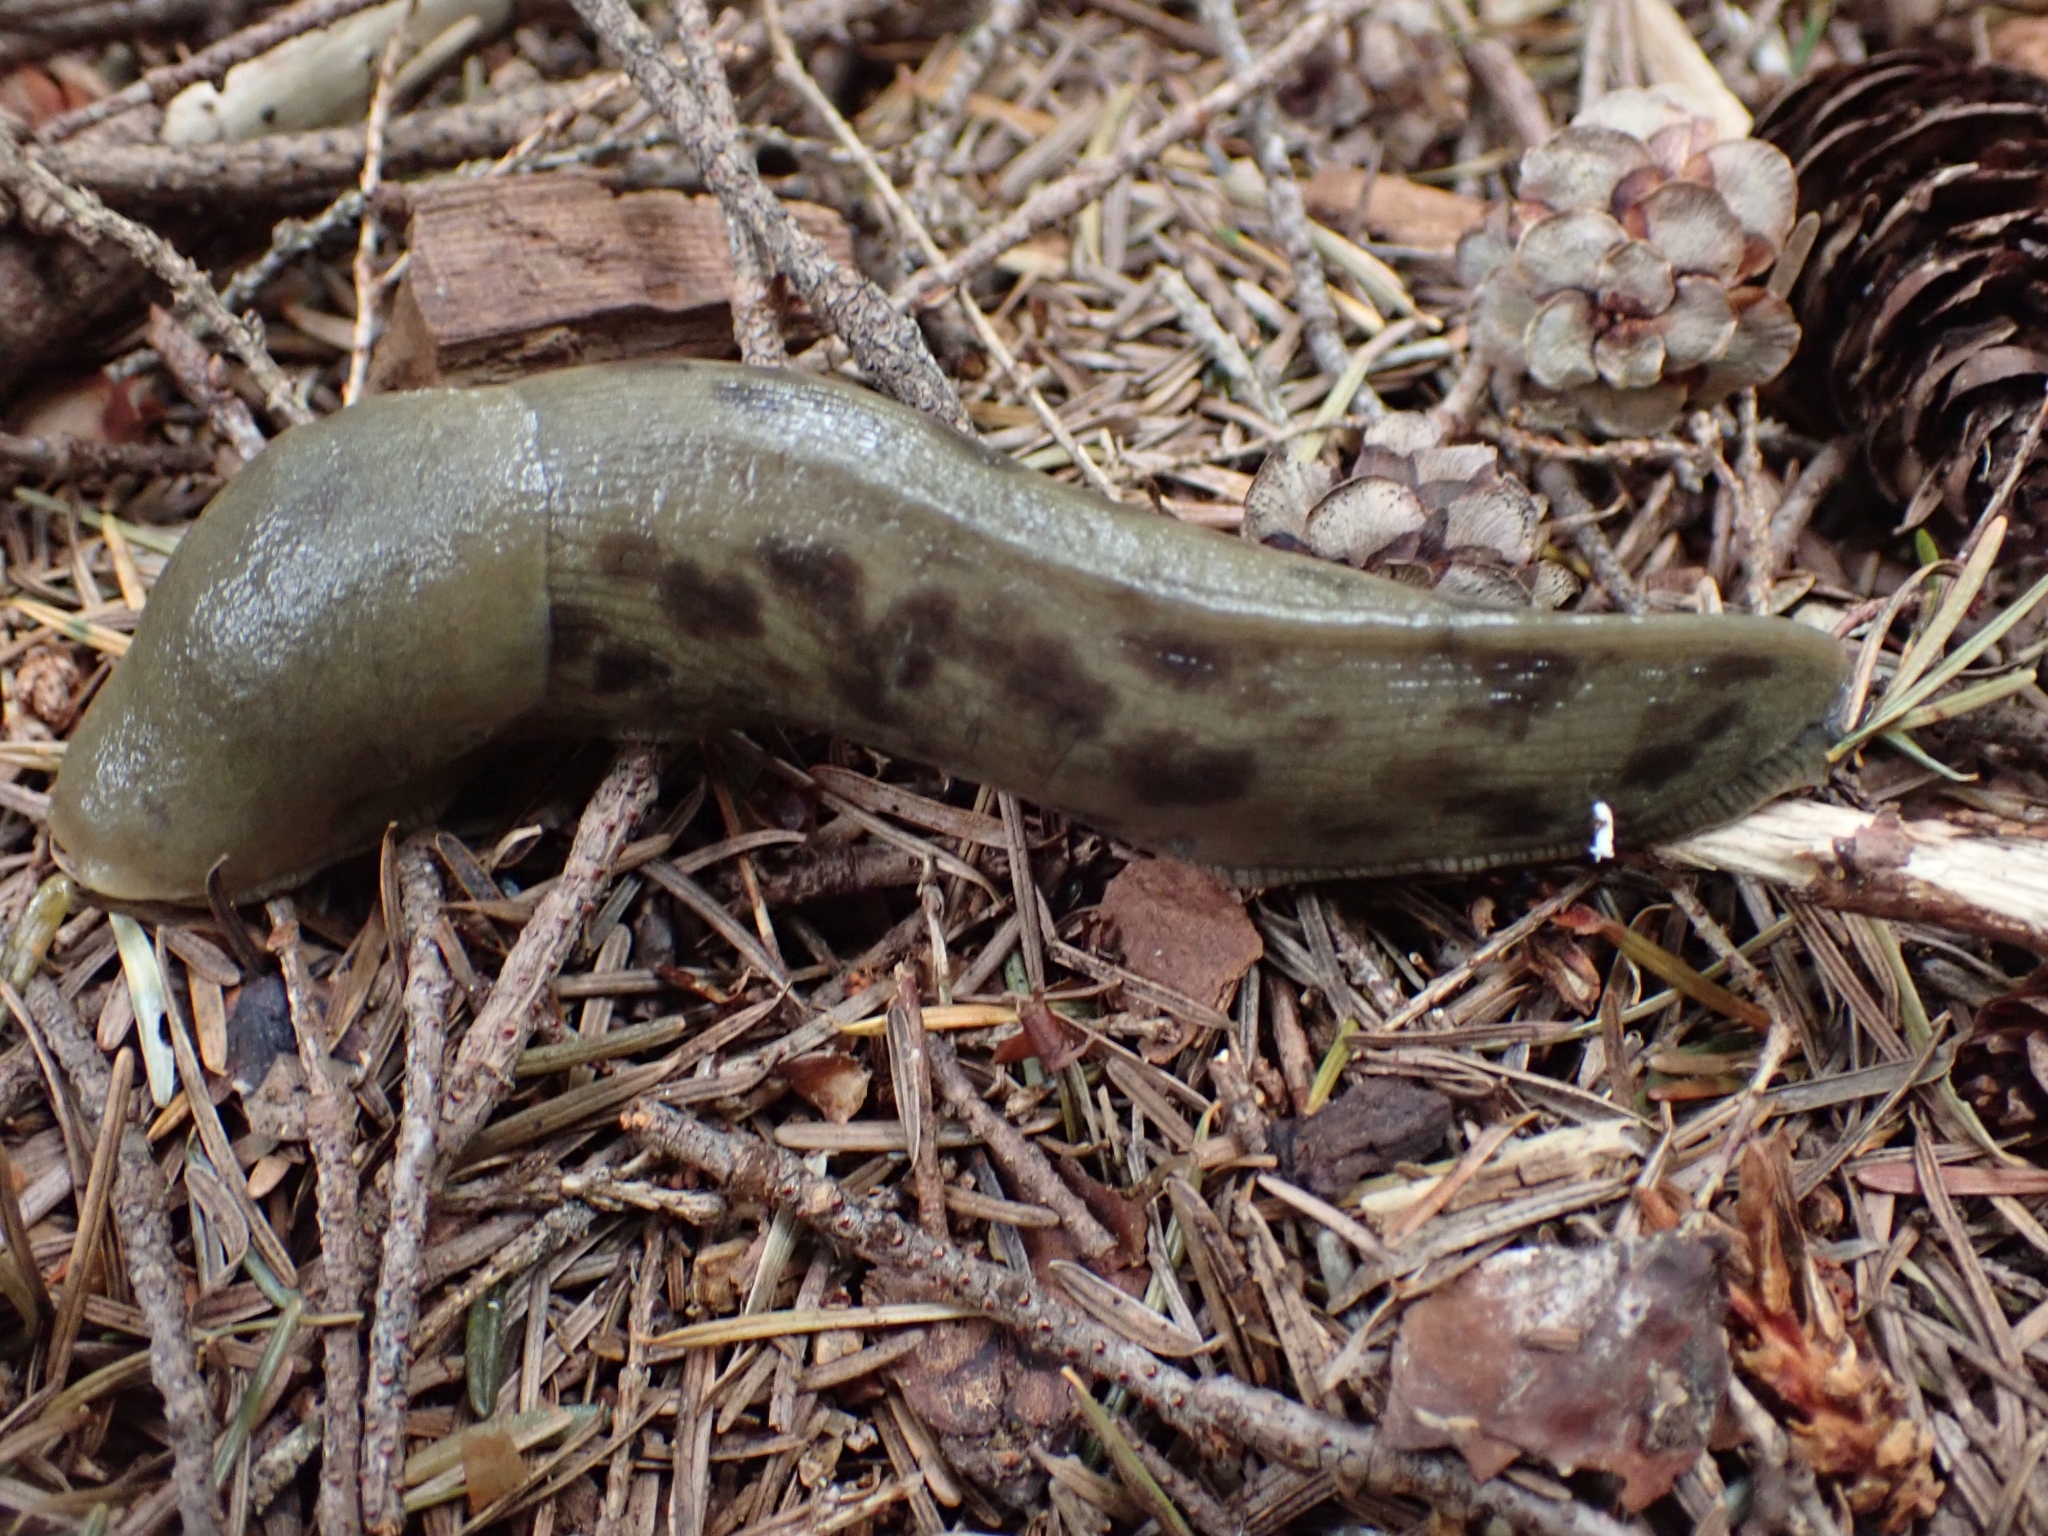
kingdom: Animalia
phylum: Mollusca
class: Gastropoda
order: Stylommatophora
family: Ariolimacidae
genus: Ariolimax
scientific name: Ariolimax columbianus
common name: Pacific banana slug
